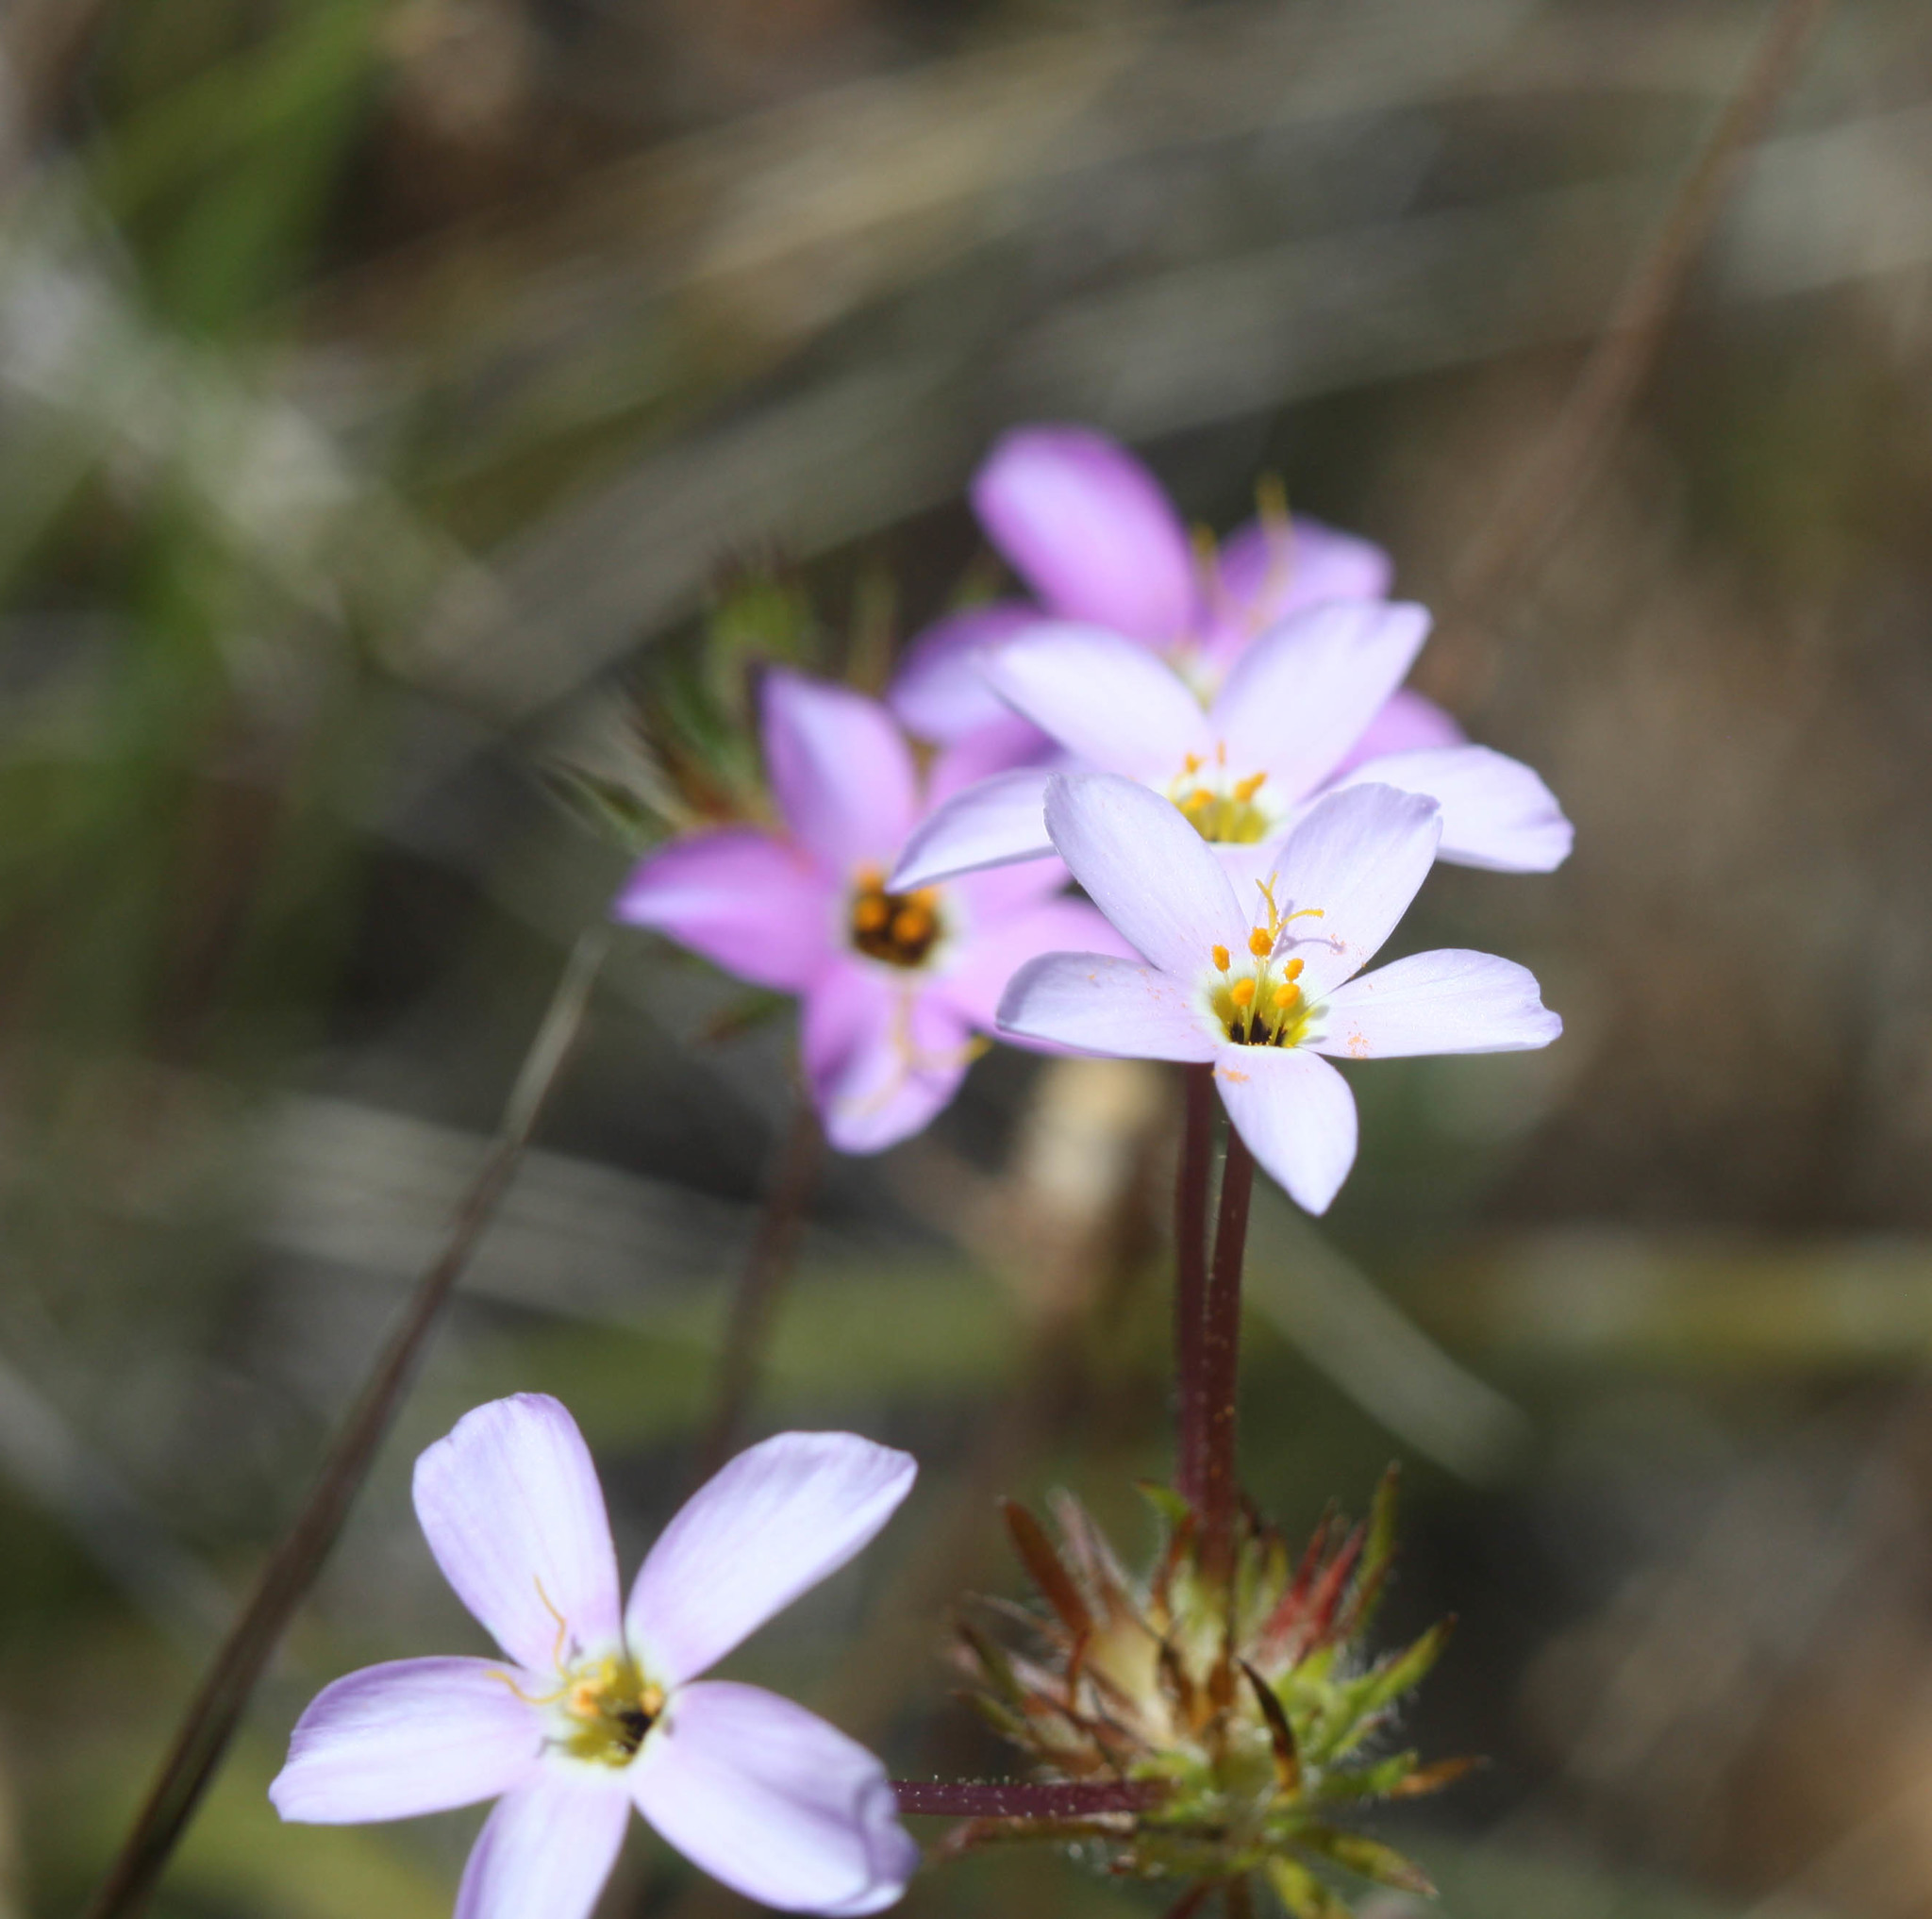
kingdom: Plantae
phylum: Tracheophyta
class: Magnoliopsida
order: Ericales
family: Polemoniaceae
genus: Leptosiphon
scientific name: Leptosiphon androsaceus
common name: False babystars
